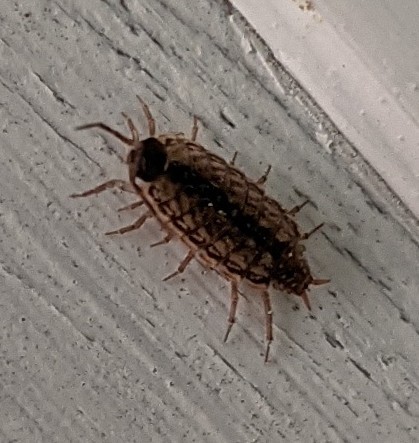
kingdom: Animalia
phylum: Arthropoda
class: Malacostraca
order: Isopoda
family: Philosciidae
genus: Philoscia
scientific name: Philoscia muscorum
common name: Common striped woodlouse
